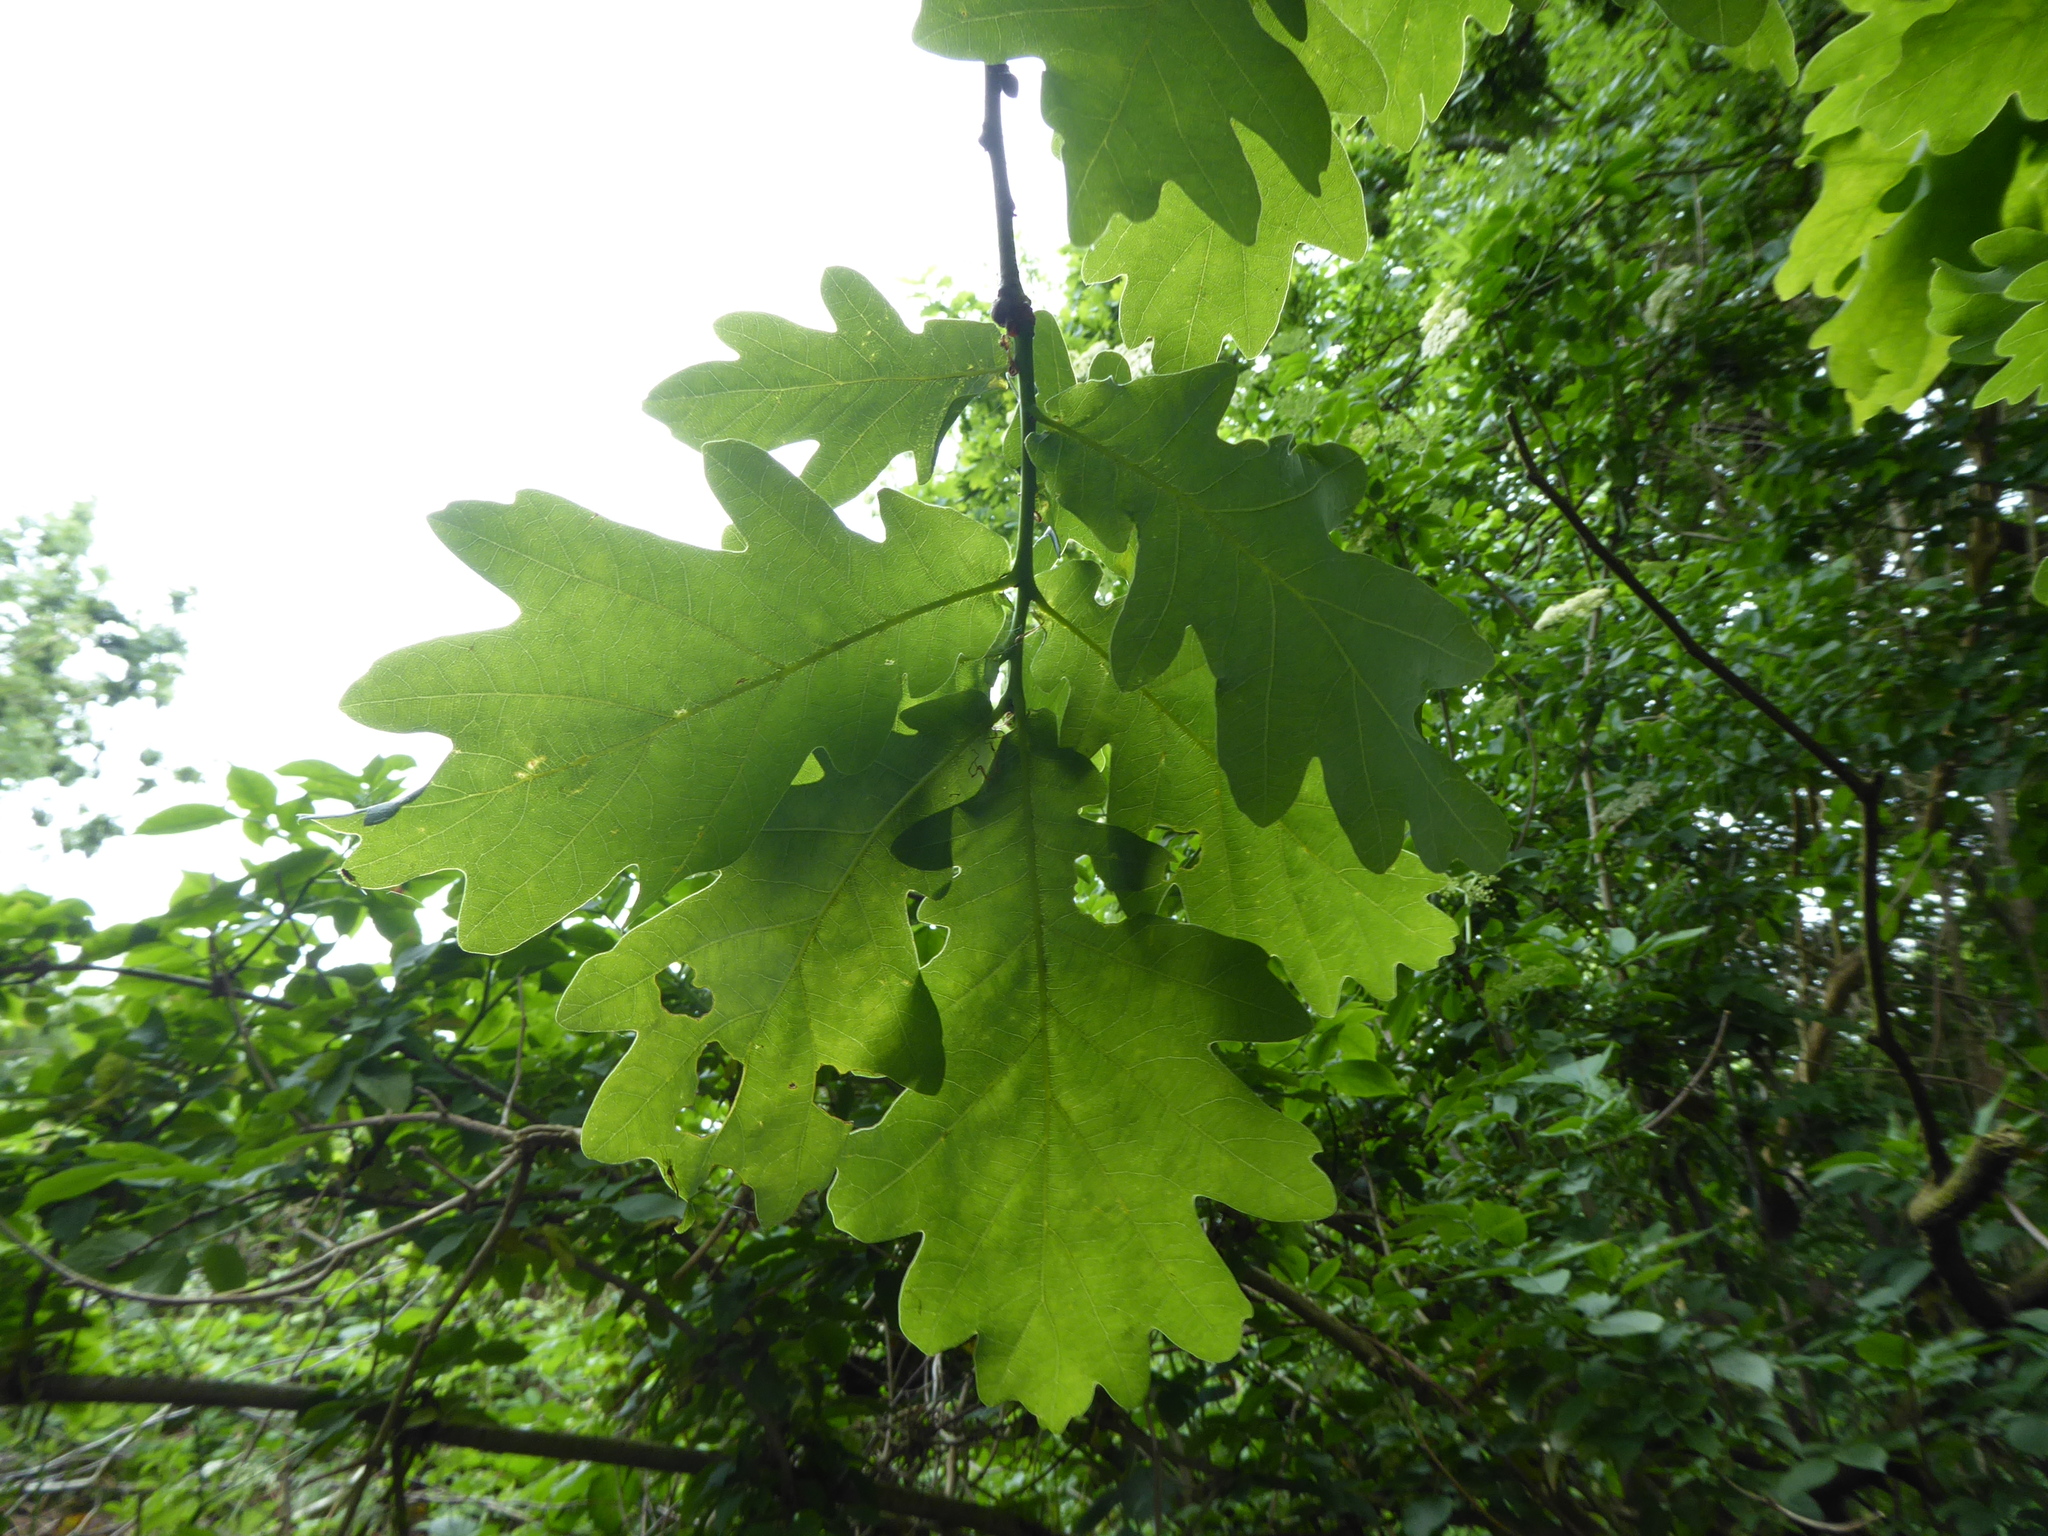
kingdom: Plantae
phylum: Tracheophyta
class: Magnoliopsida
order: Fagales
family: Fagaceae
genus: Quercus
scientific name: Quercus robur
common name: Pedunculate oak
